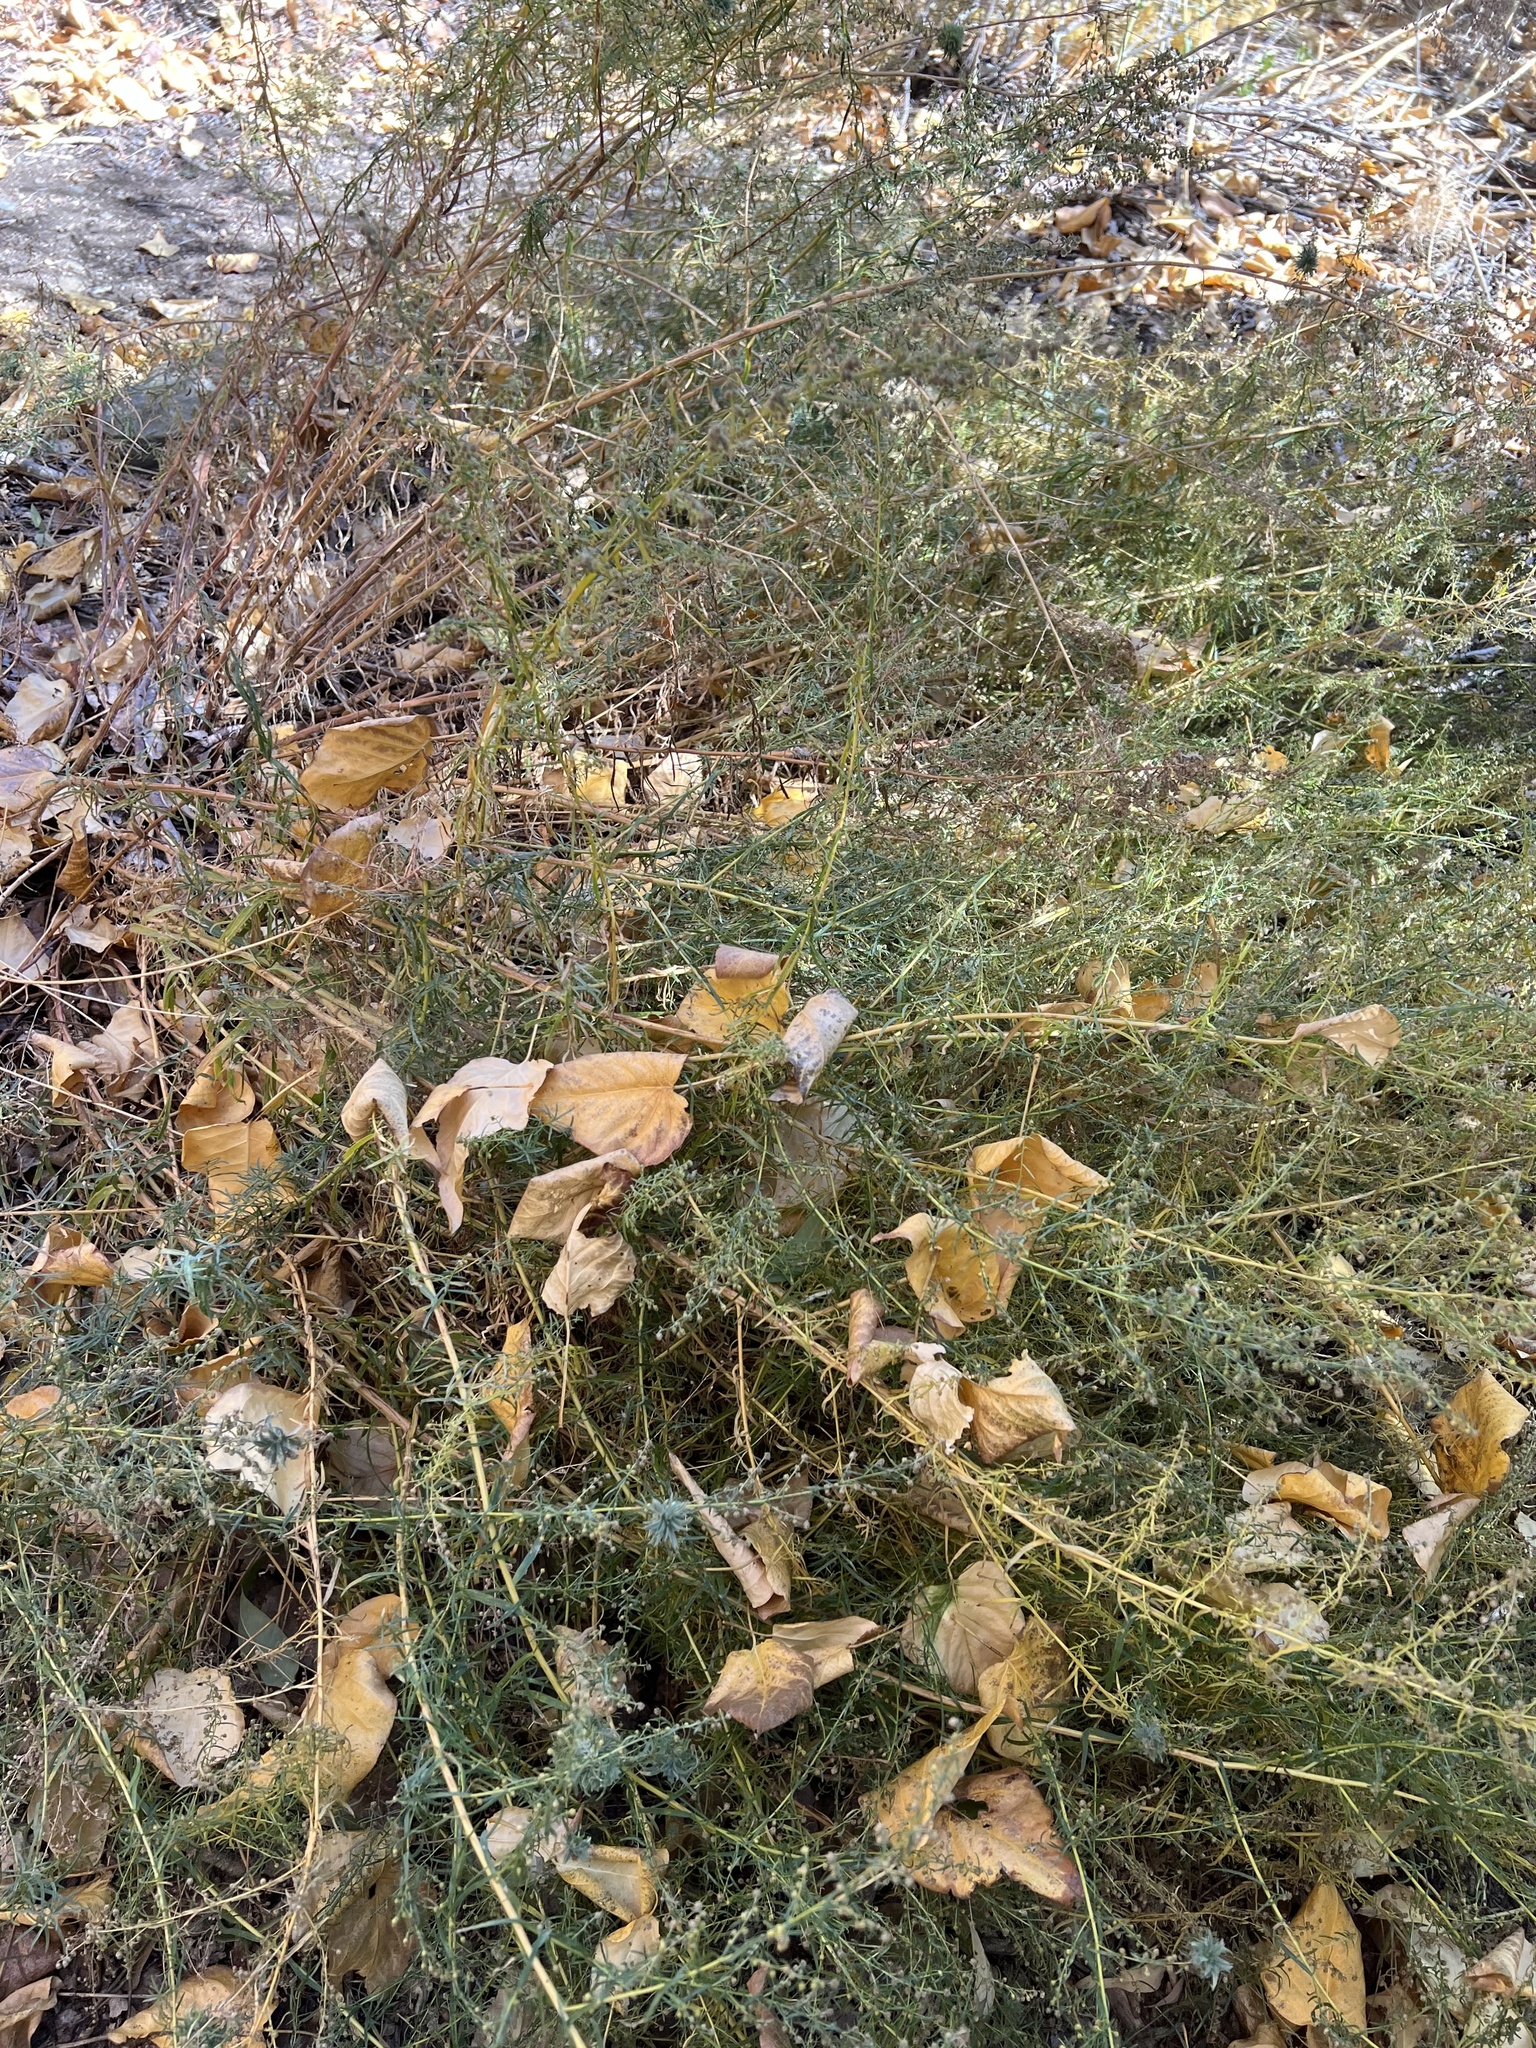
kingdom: Plantae
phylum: Tracheophyta
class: Magnoliopsida
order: Asterales
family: Asteraceae
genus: Artemisia
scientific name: Artemisia dracunculus
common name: Tarragon
